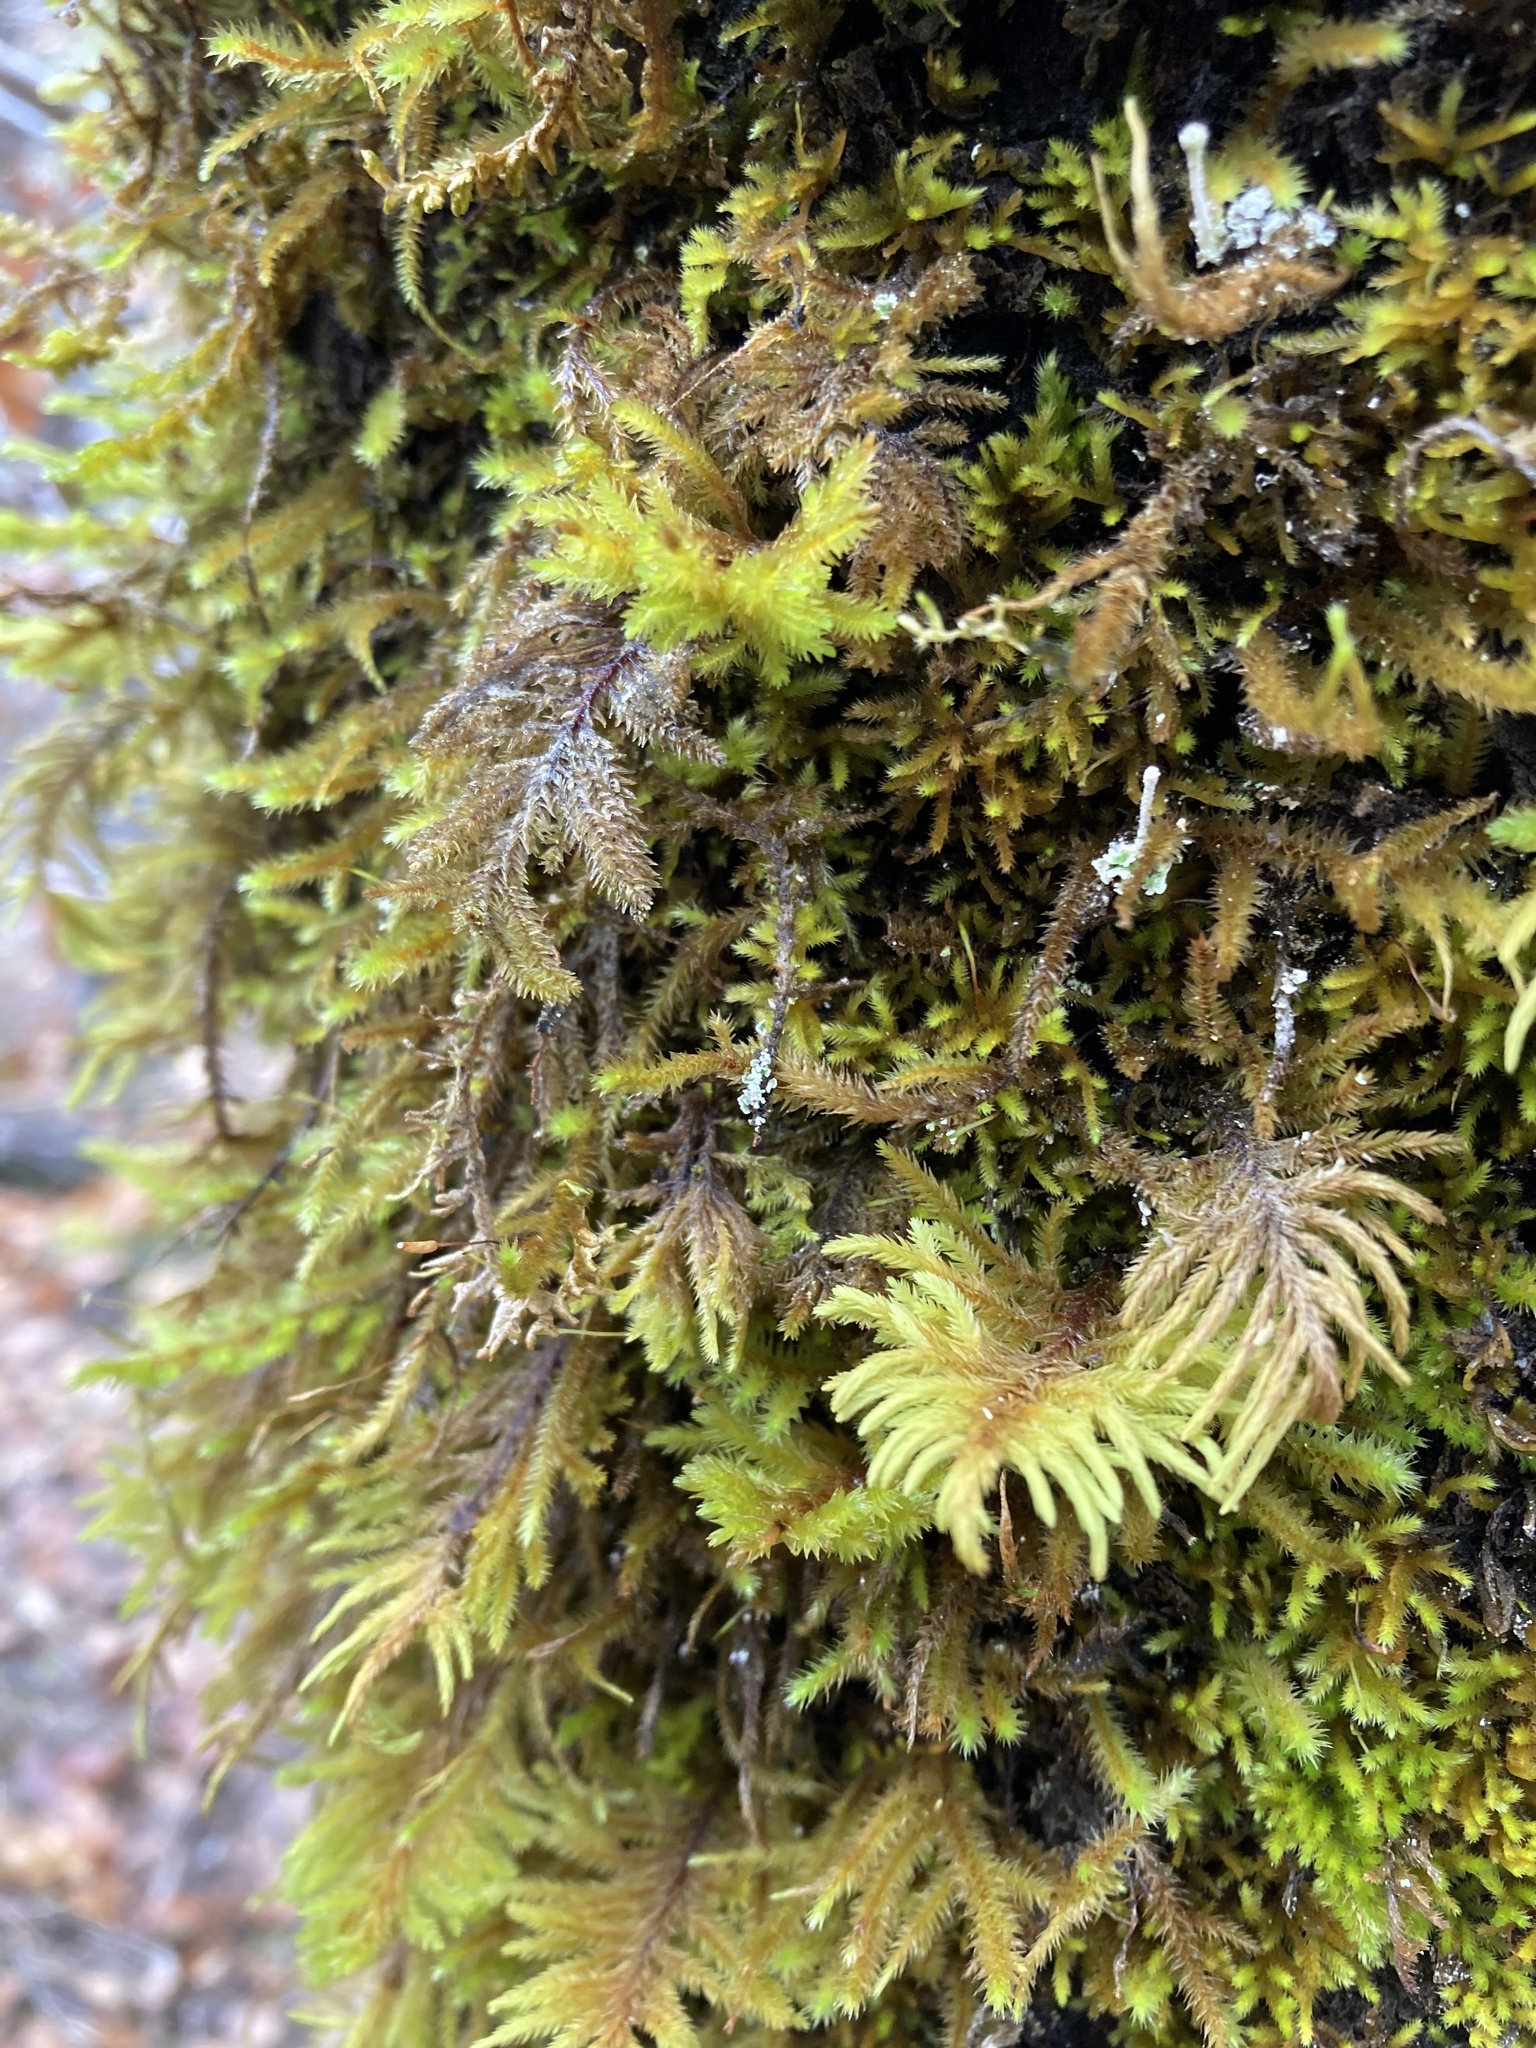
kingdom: Plantae
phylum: Bryophyta
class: Bryopsida
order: Hypnales
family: Cryphaeaceae
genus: Dendroalsia
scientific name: Dendroalsia abietina
